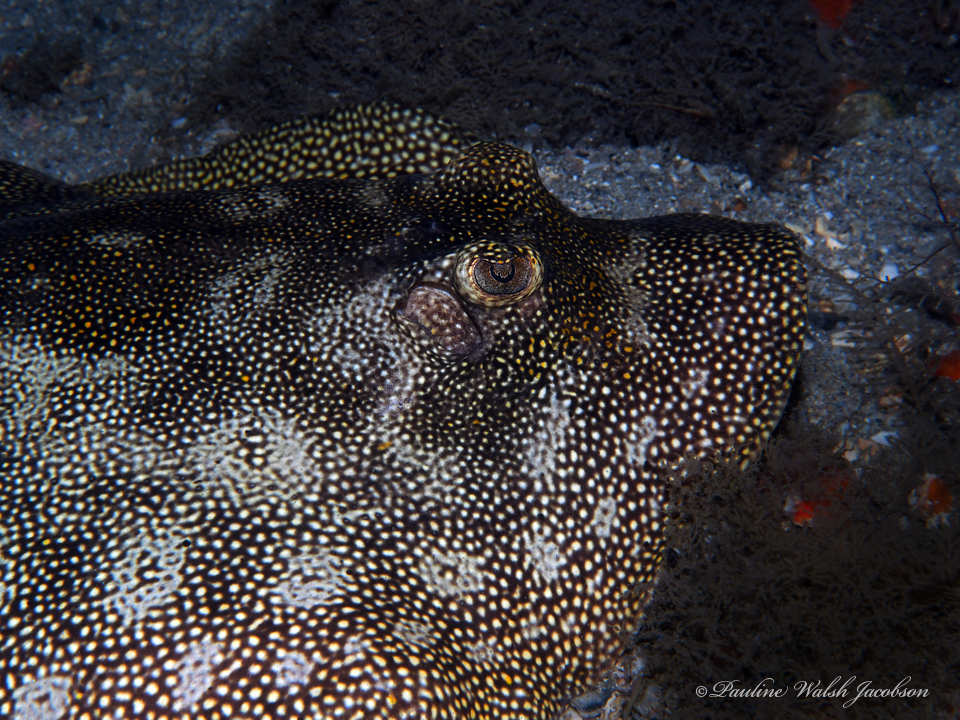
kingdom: Animalia
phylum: Chordata
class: Elasmobranchii
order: Myliobatiformes
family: Urotrygonidae
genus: Urobatis
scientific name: Urobatis jamaicensis
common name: Yellow stingray
